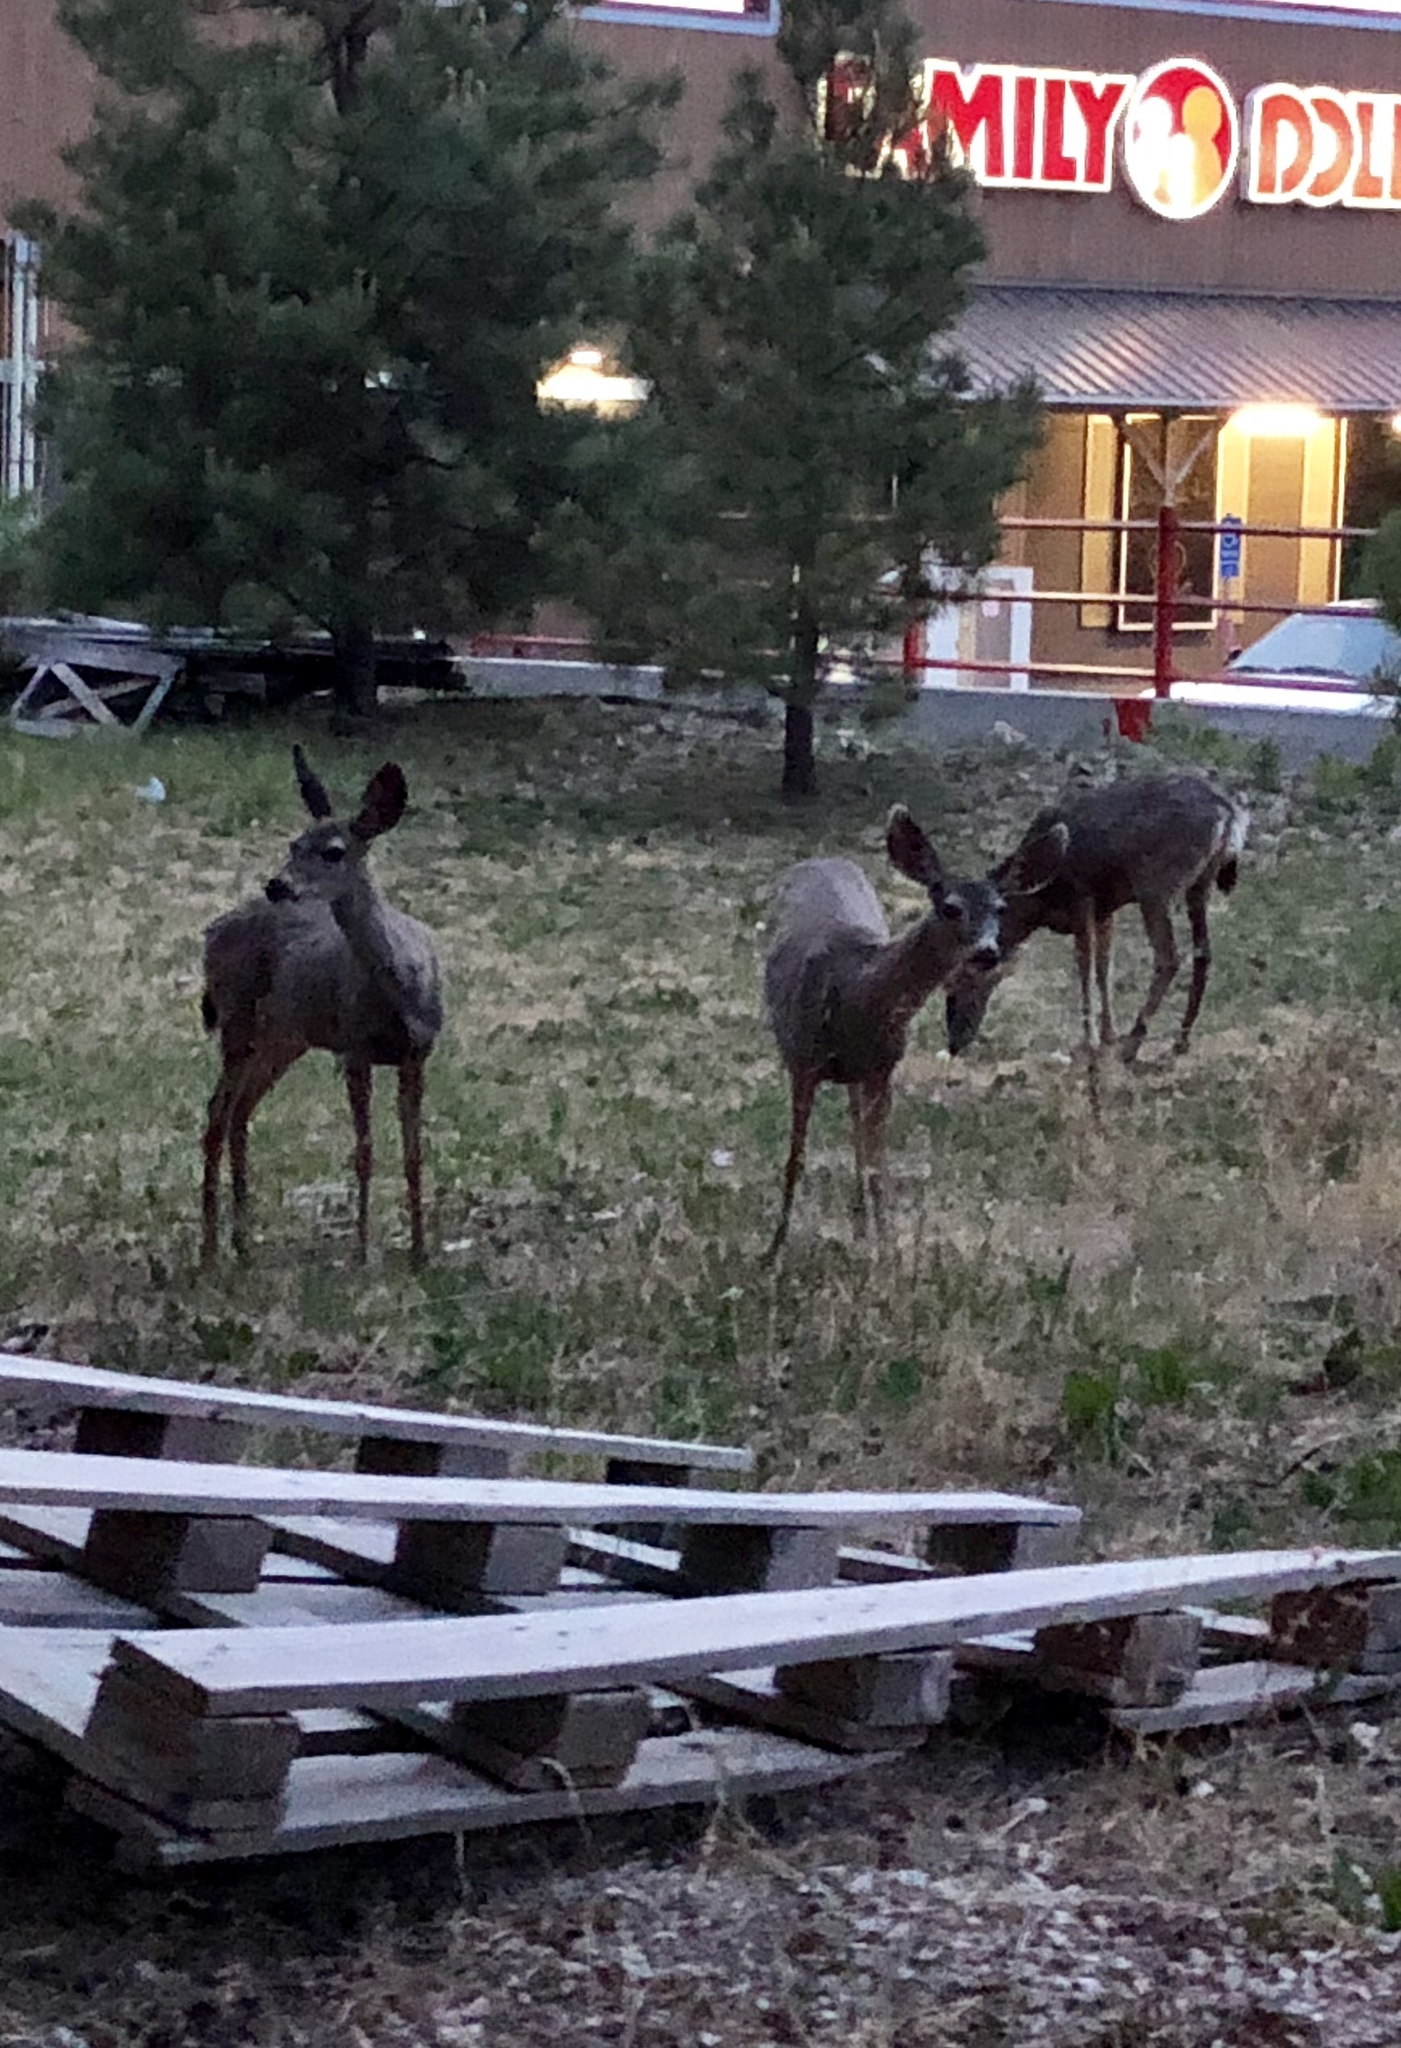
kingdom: Animalia
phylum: Chordata
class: Mammalia
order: Artiodactyla
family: Cervidae
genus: Odocoileus
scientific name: Odocoileus hemionus
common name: Mule deer
